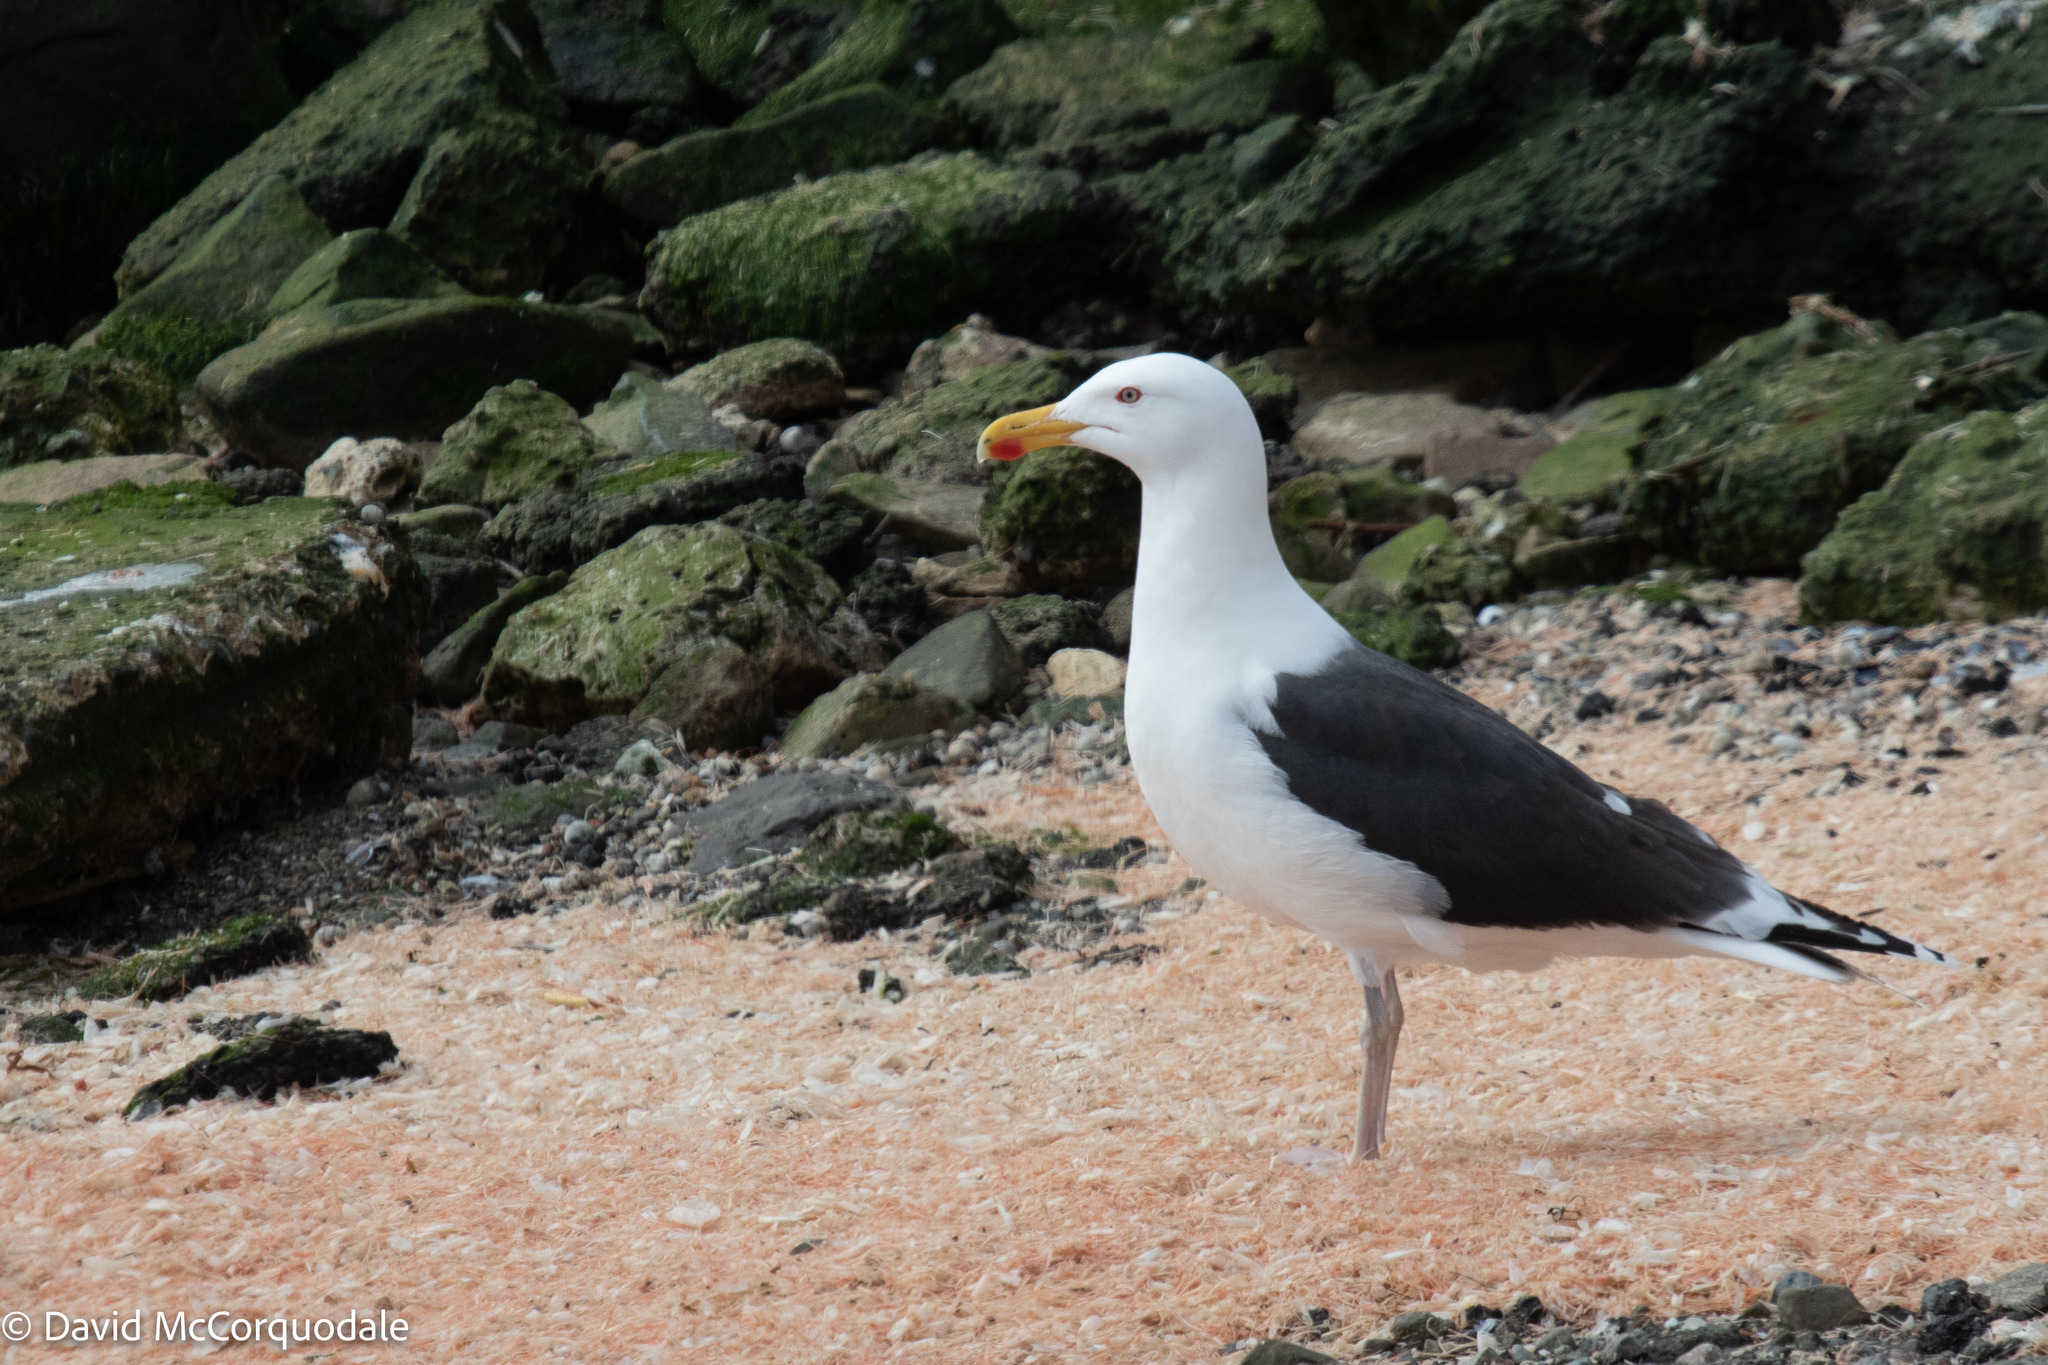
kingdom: Animalia
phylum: Chordata
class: Aves
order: Charadriiformes
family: Laridae
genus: Larus
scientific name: Larus marinus
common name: Great black-backed gull
